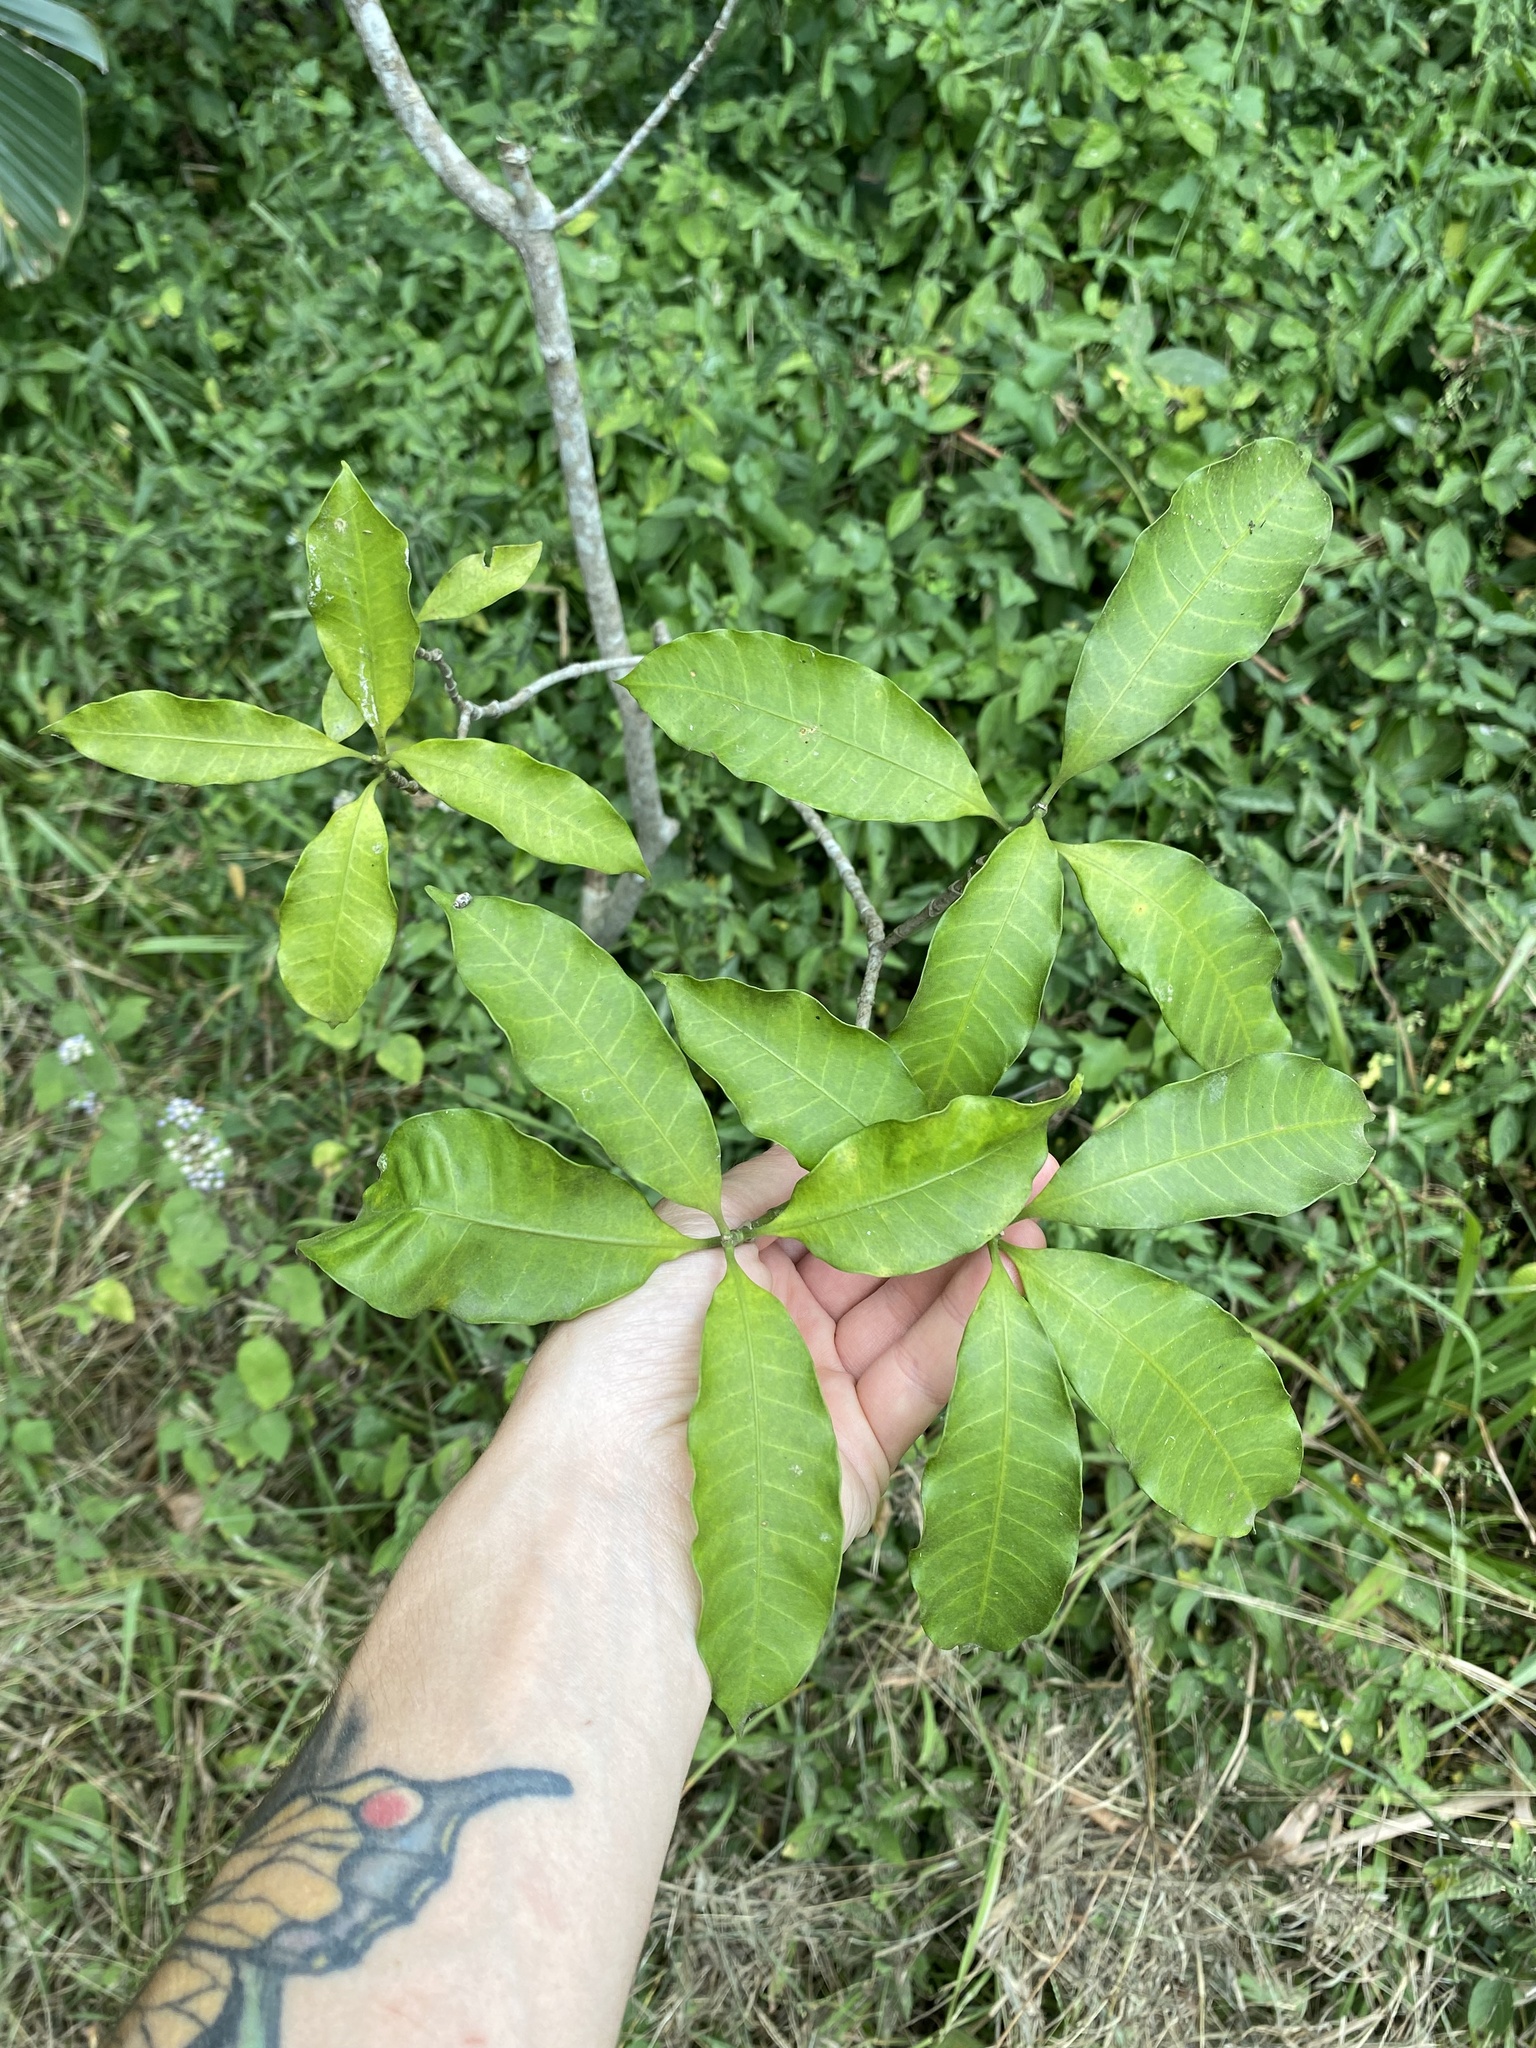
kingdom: Plantae
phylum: Tracheophyta
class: Magnoliopsida
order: Gentianales
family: Apocynaceae
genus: Tabernaemontana
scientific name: Tabernaemontana ventricosa
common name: Forest toad-tree
